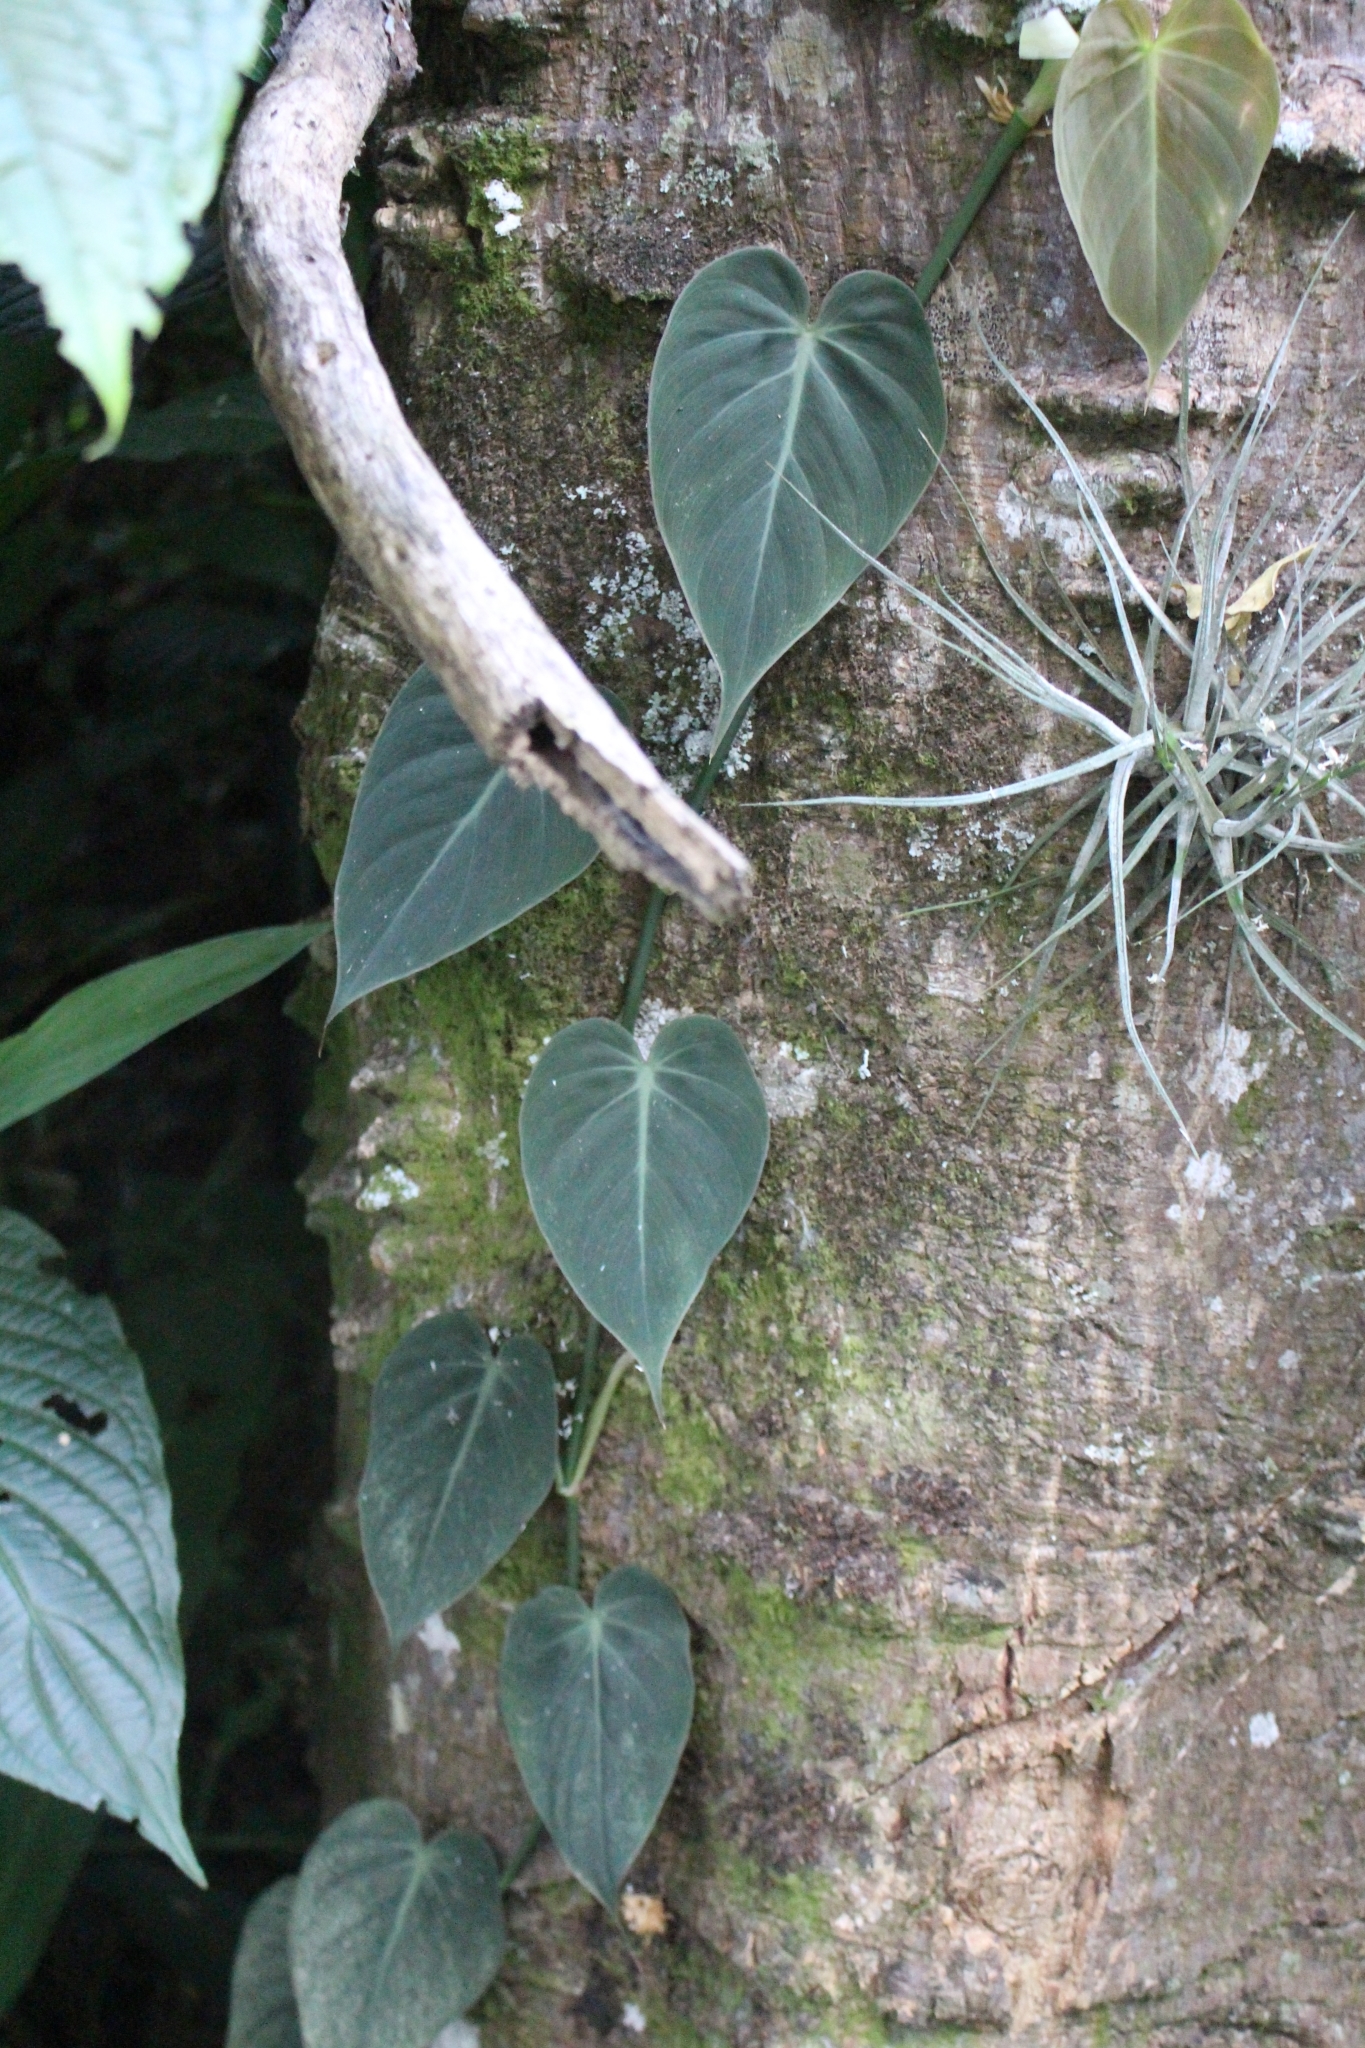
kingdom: Plantae
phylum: Tracheophyta
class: Liliopsida
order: Alismatales
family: Araceae
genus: Philodendron
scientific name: Philodendron hederaceum
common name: Vilevine
